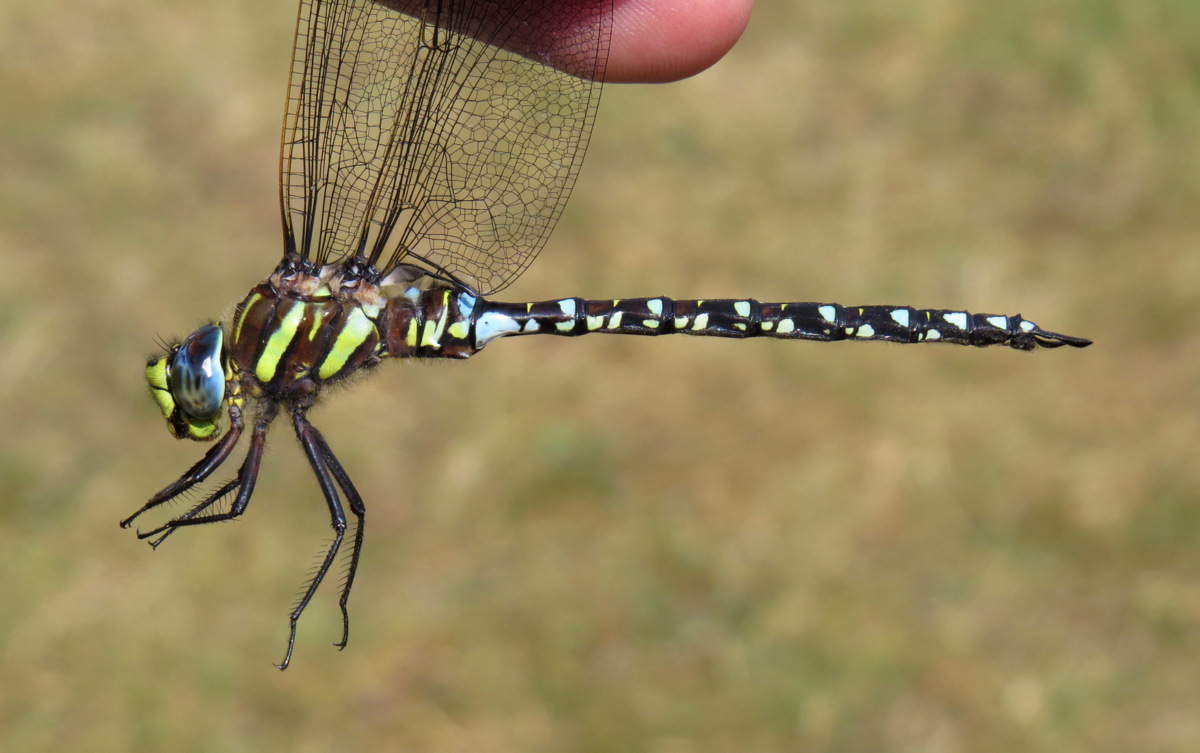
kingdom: Animalia
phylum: Arthropoda
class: Insecta
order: Odonata
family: Aeshnidae
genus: Aeshna
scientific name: Aeshna juncea
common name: Moorland hawker
